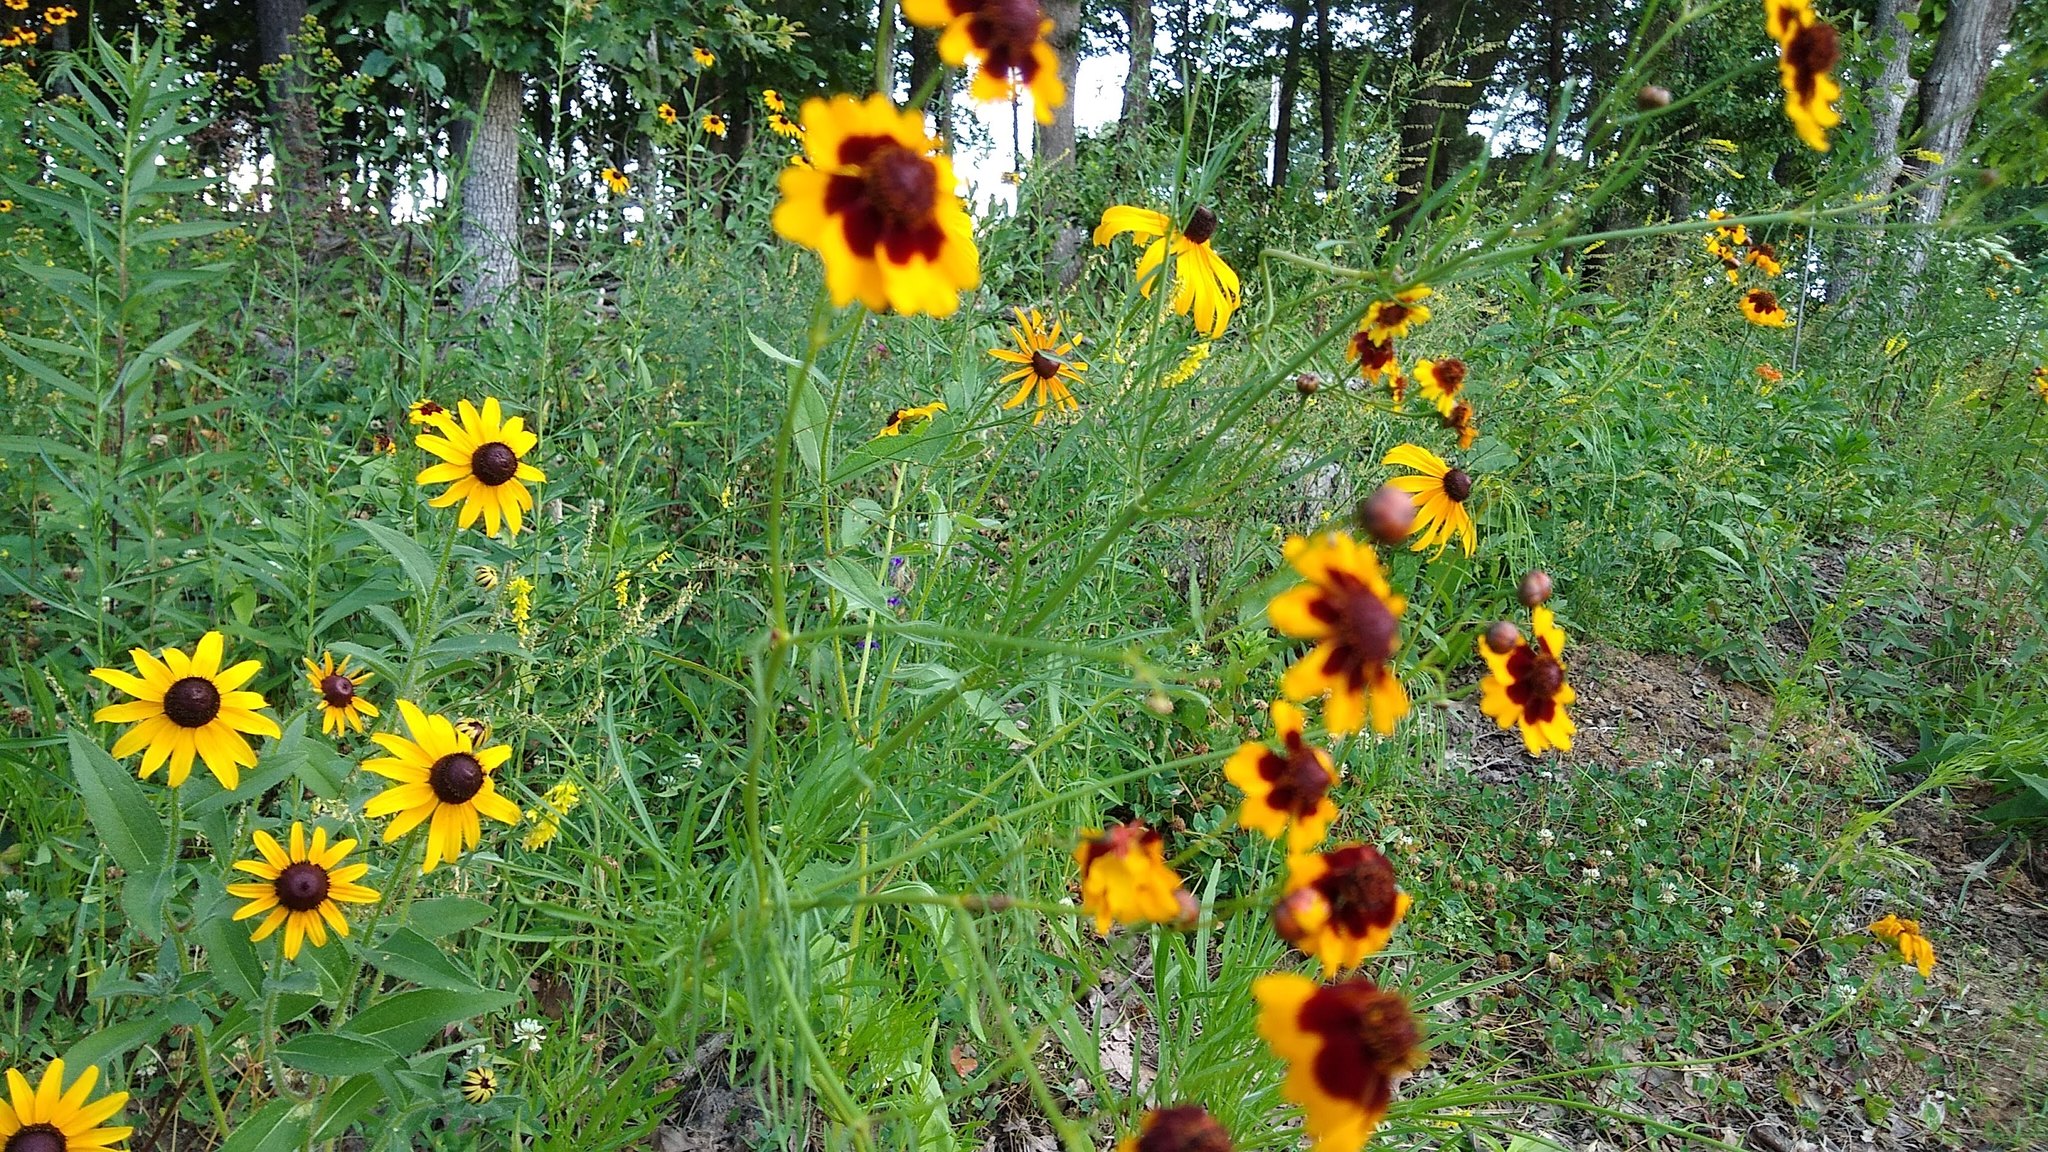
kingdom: Plantae
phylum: Tracheophyta
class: Magnoliopsida
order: Asterales
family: Asteraceae
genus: Coreopsis
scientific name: Coreopsis tinctoria
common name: Garden tickseed
